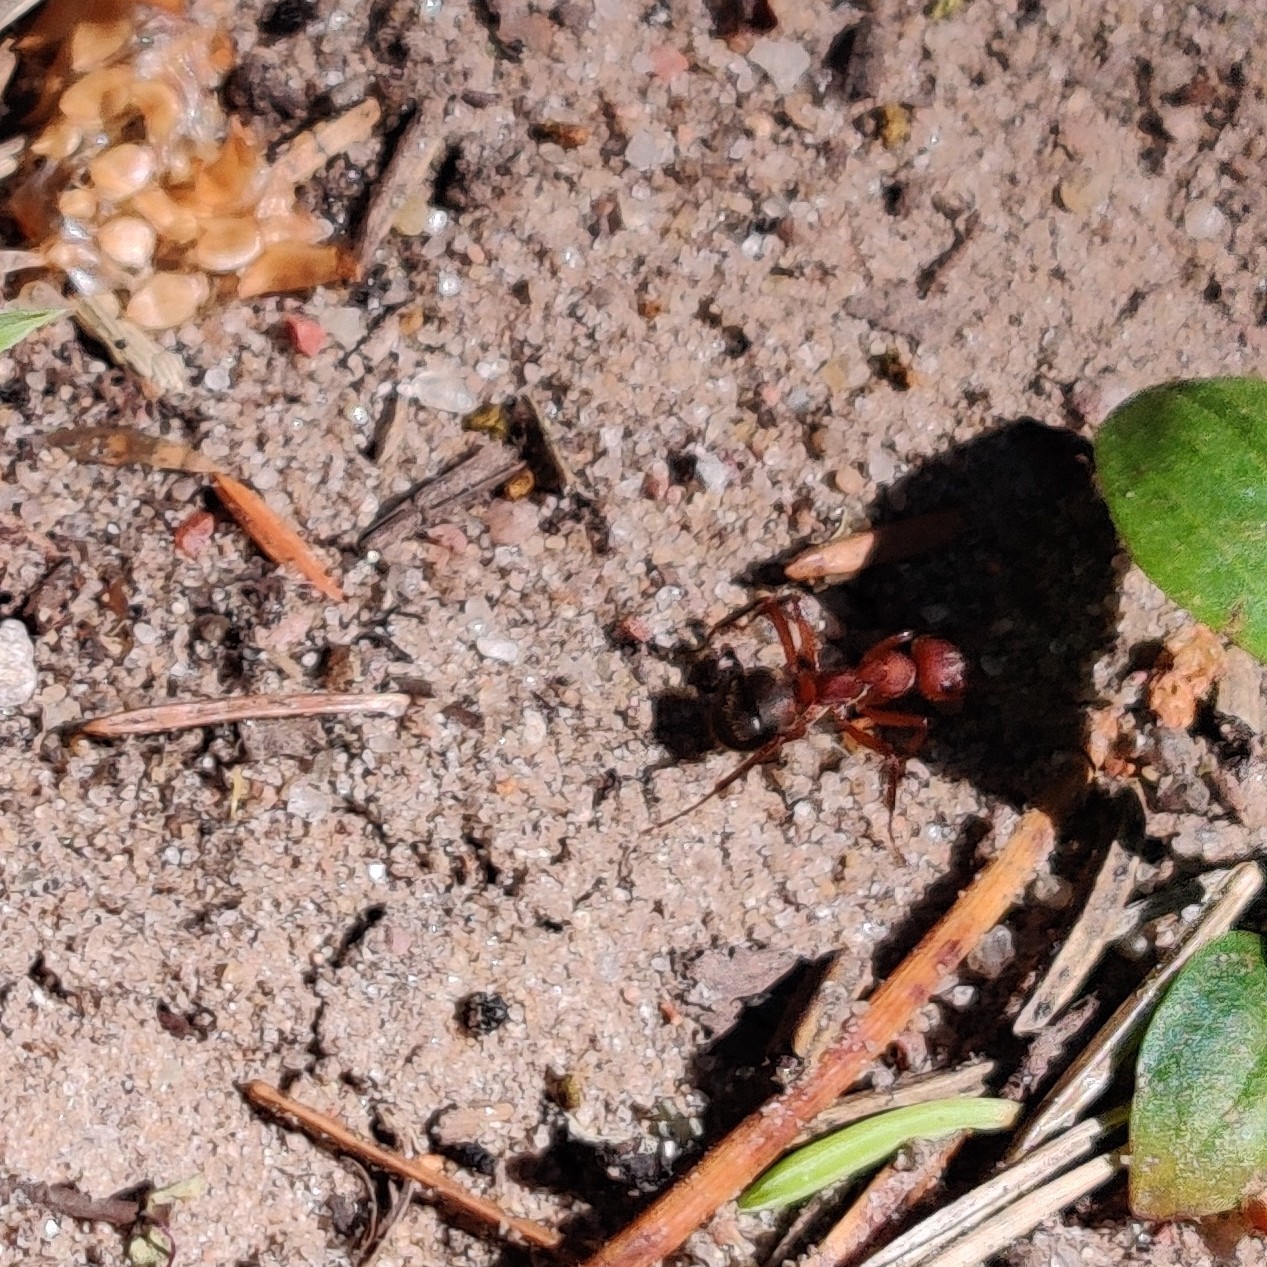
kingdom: Animalia
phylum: Arthropoda
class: Insecta
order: Hymenoptera
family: Formicidae
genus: Formica
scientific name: Formica truncorum
